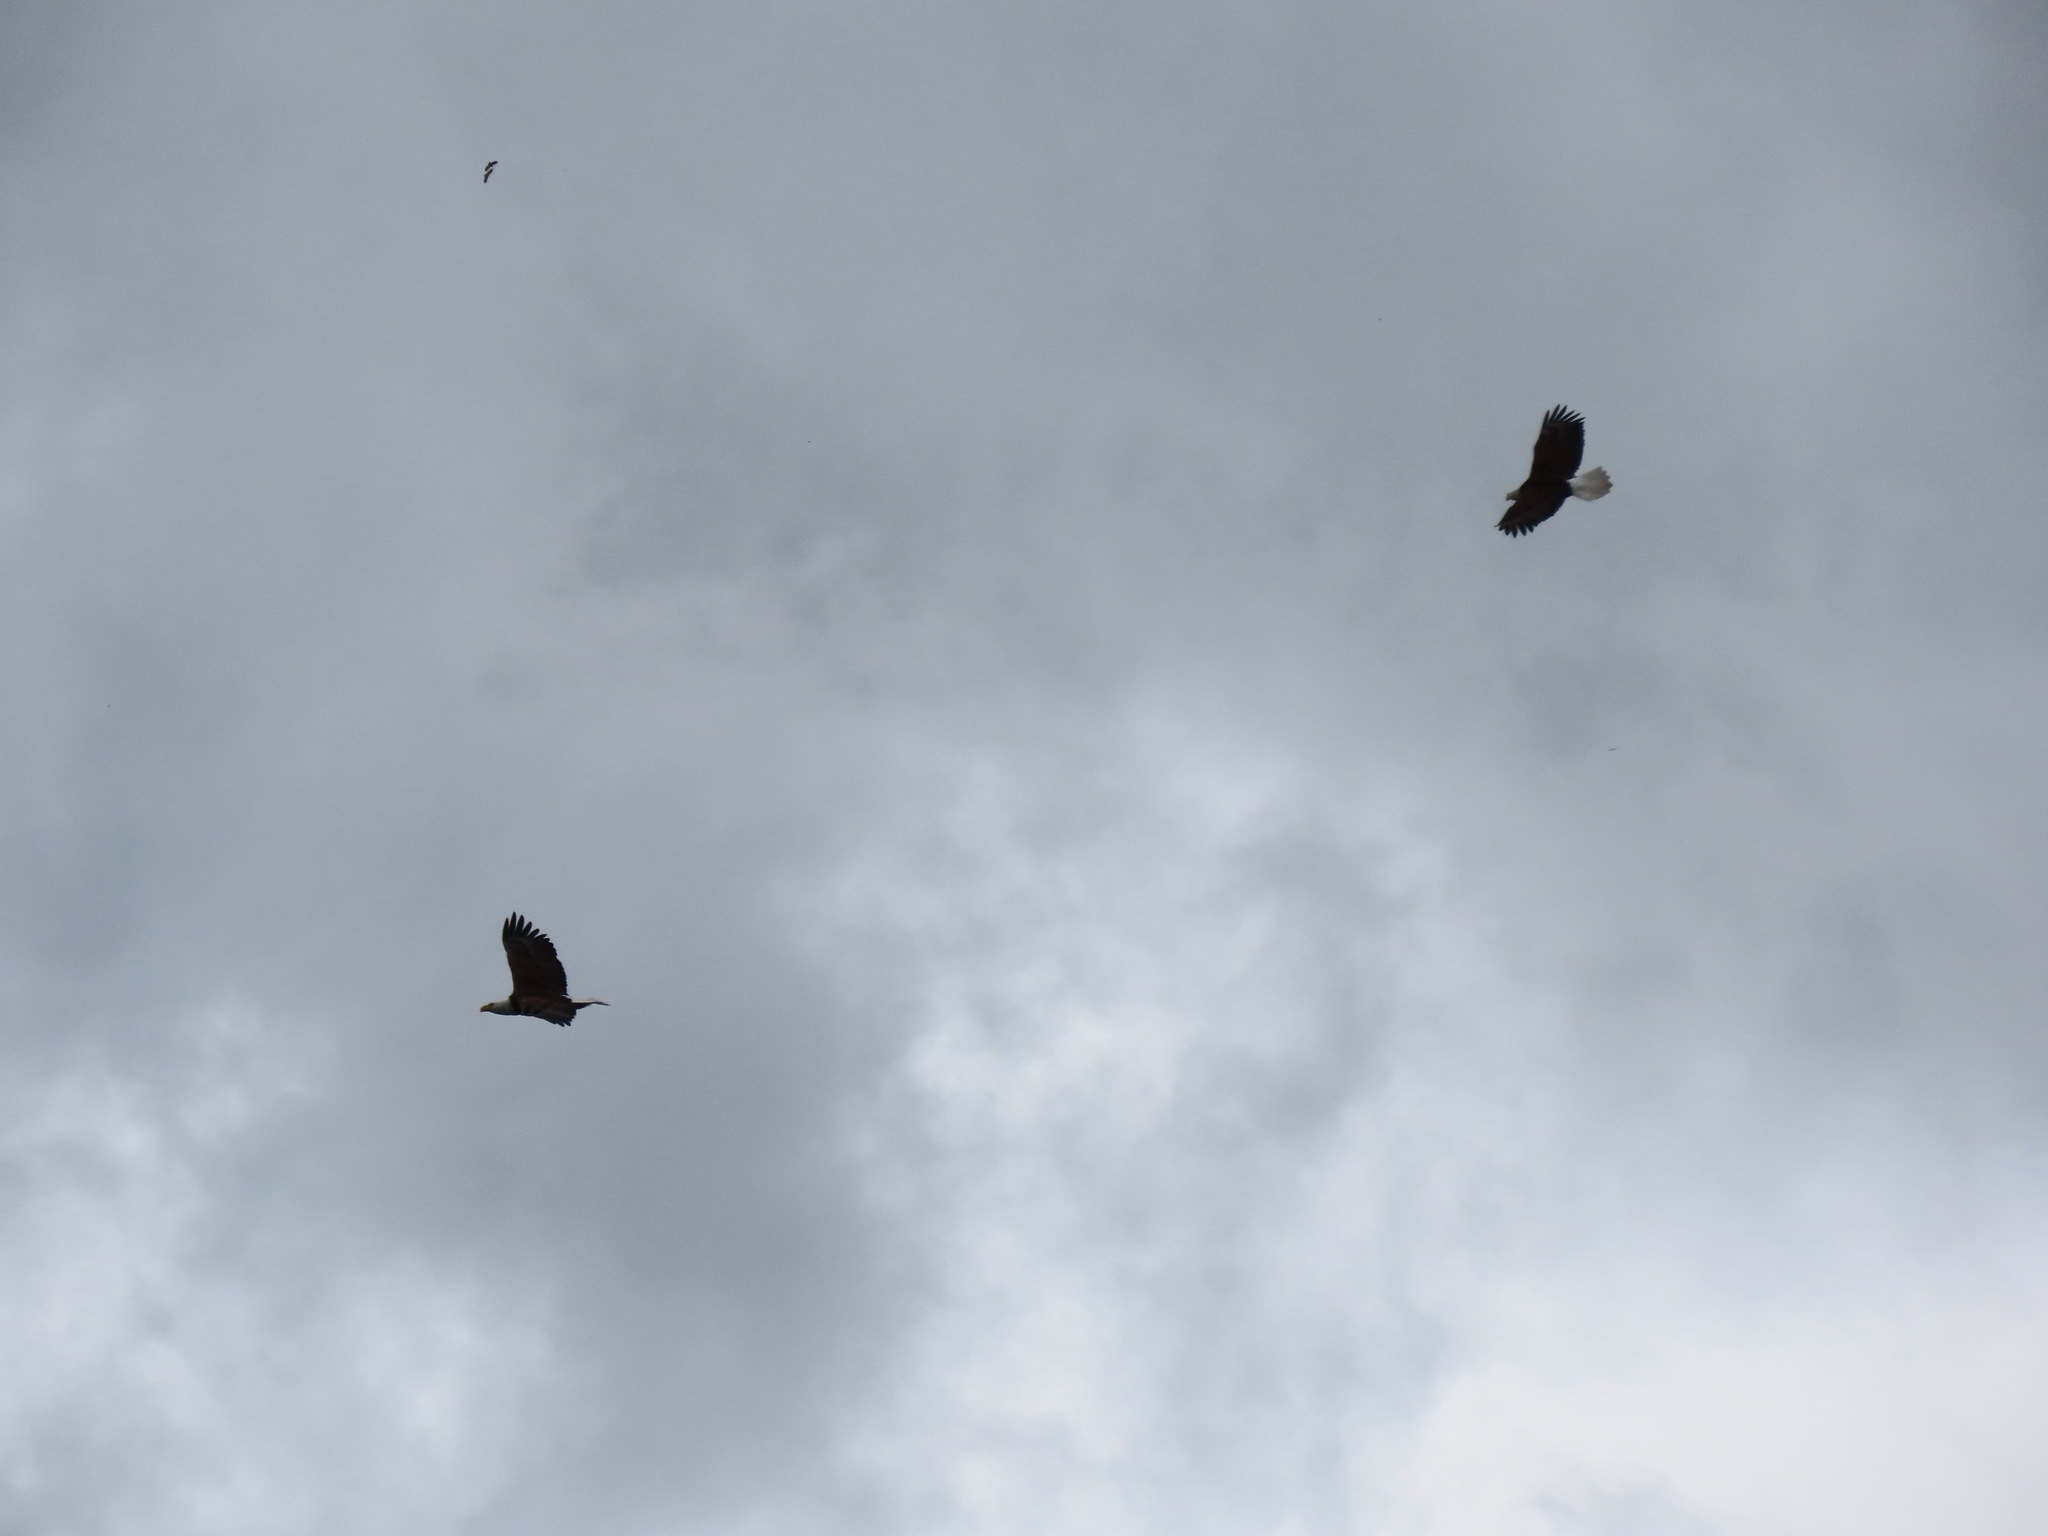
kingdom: Animalia
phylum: Chordata
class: Aves
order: Accipitriformes
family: Accipitridae
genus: Haliaeetus
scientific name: Haliaeetus leucocephalus
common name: Bald eagle
